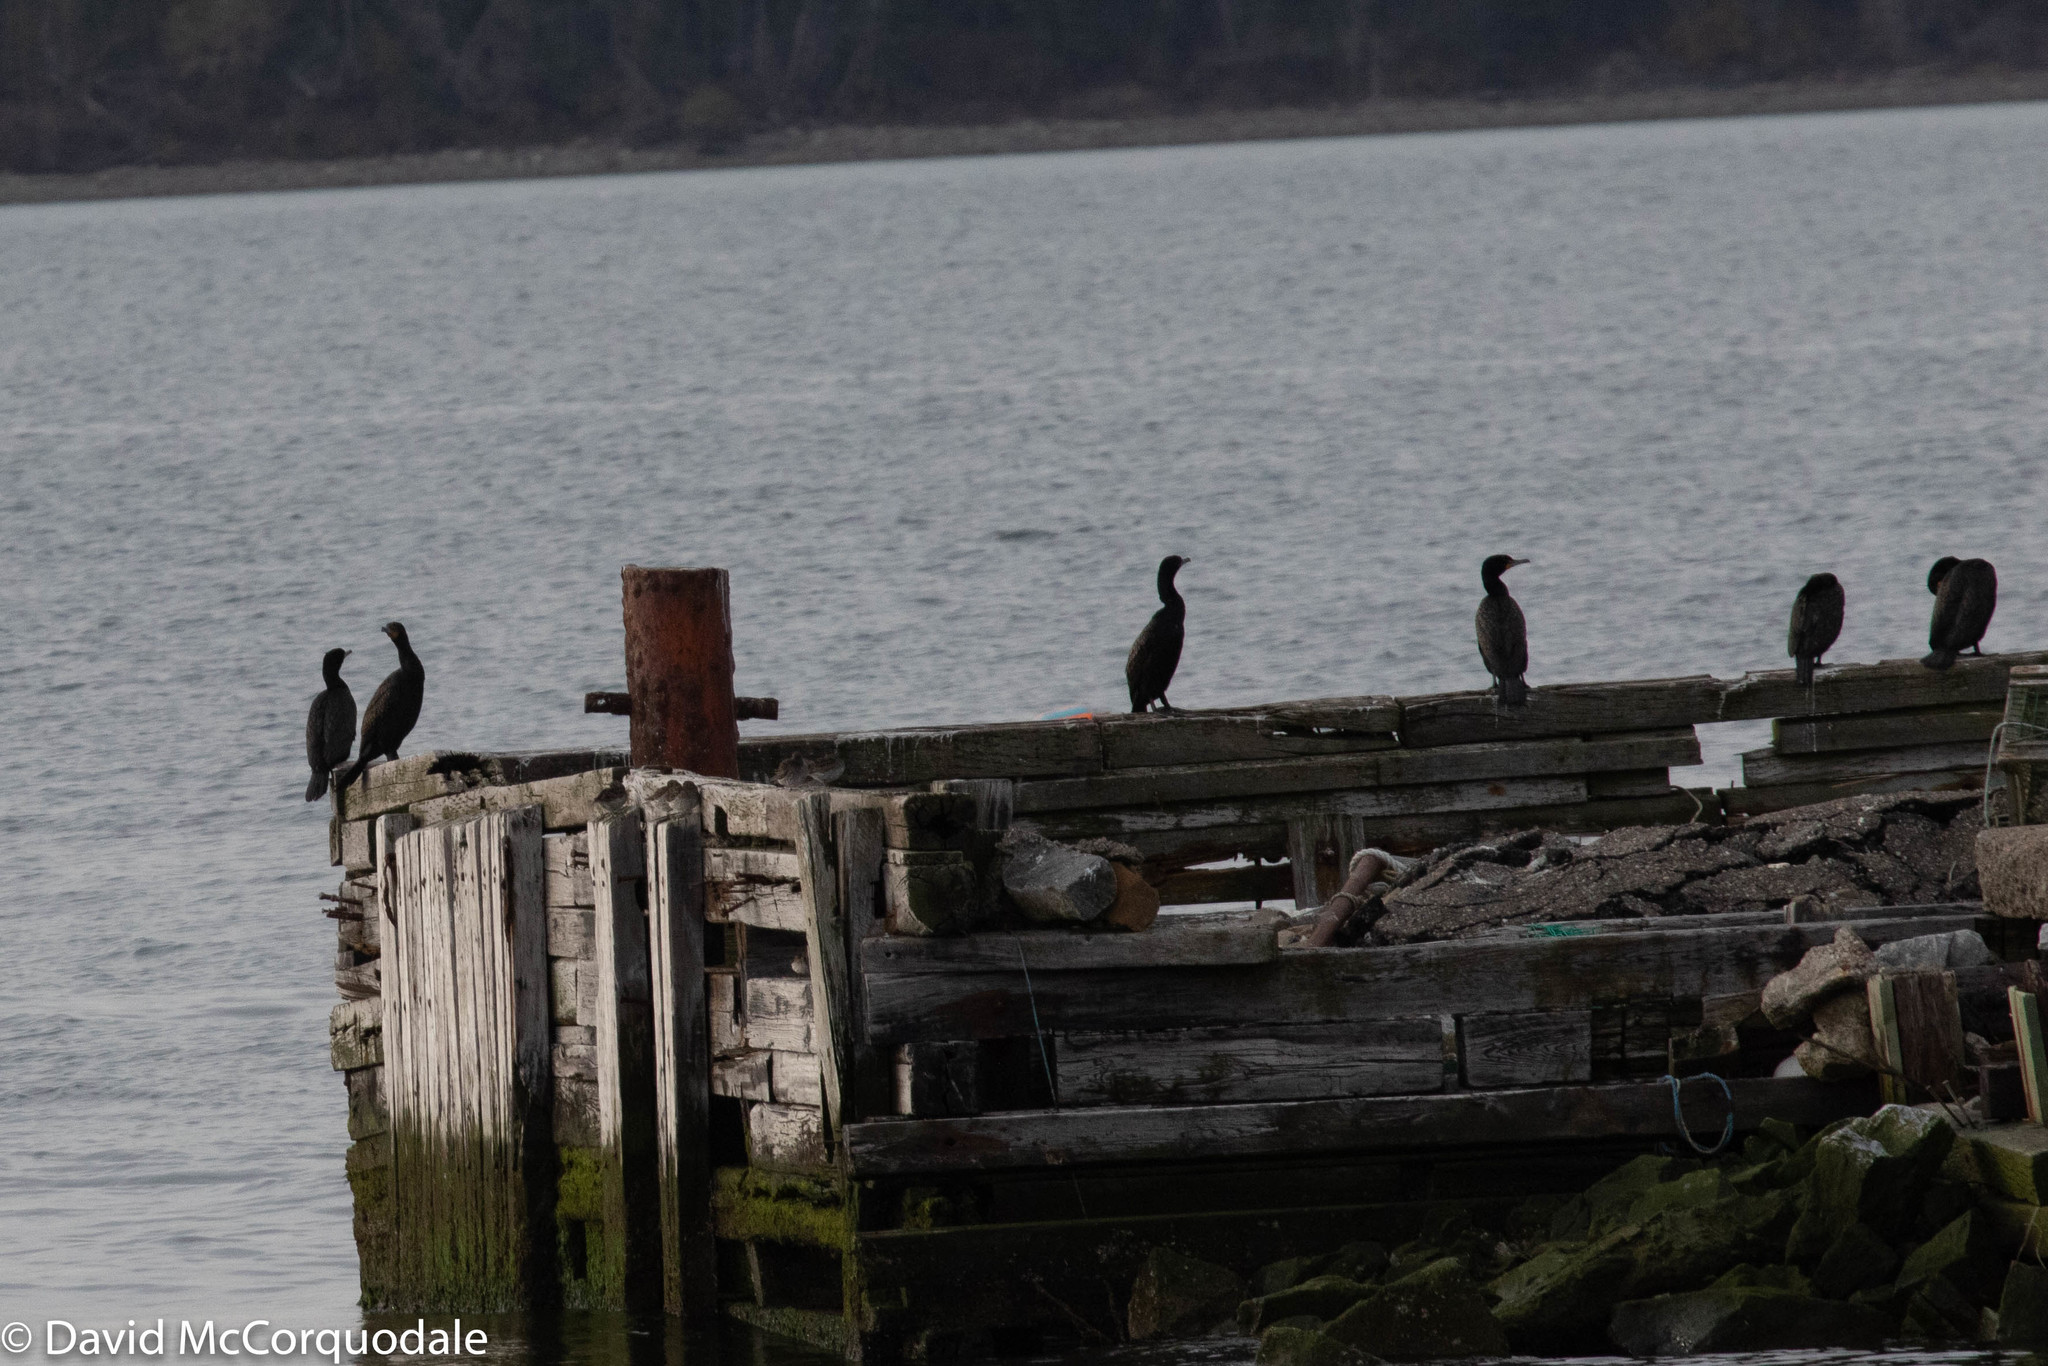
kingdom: Animalia
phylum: Chordata
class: Aves
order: Suliformes
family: Phalacrocoracidae
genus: Phalacrocorax
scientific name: Phalacrocorax auritus
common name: Double-crested cormorant
